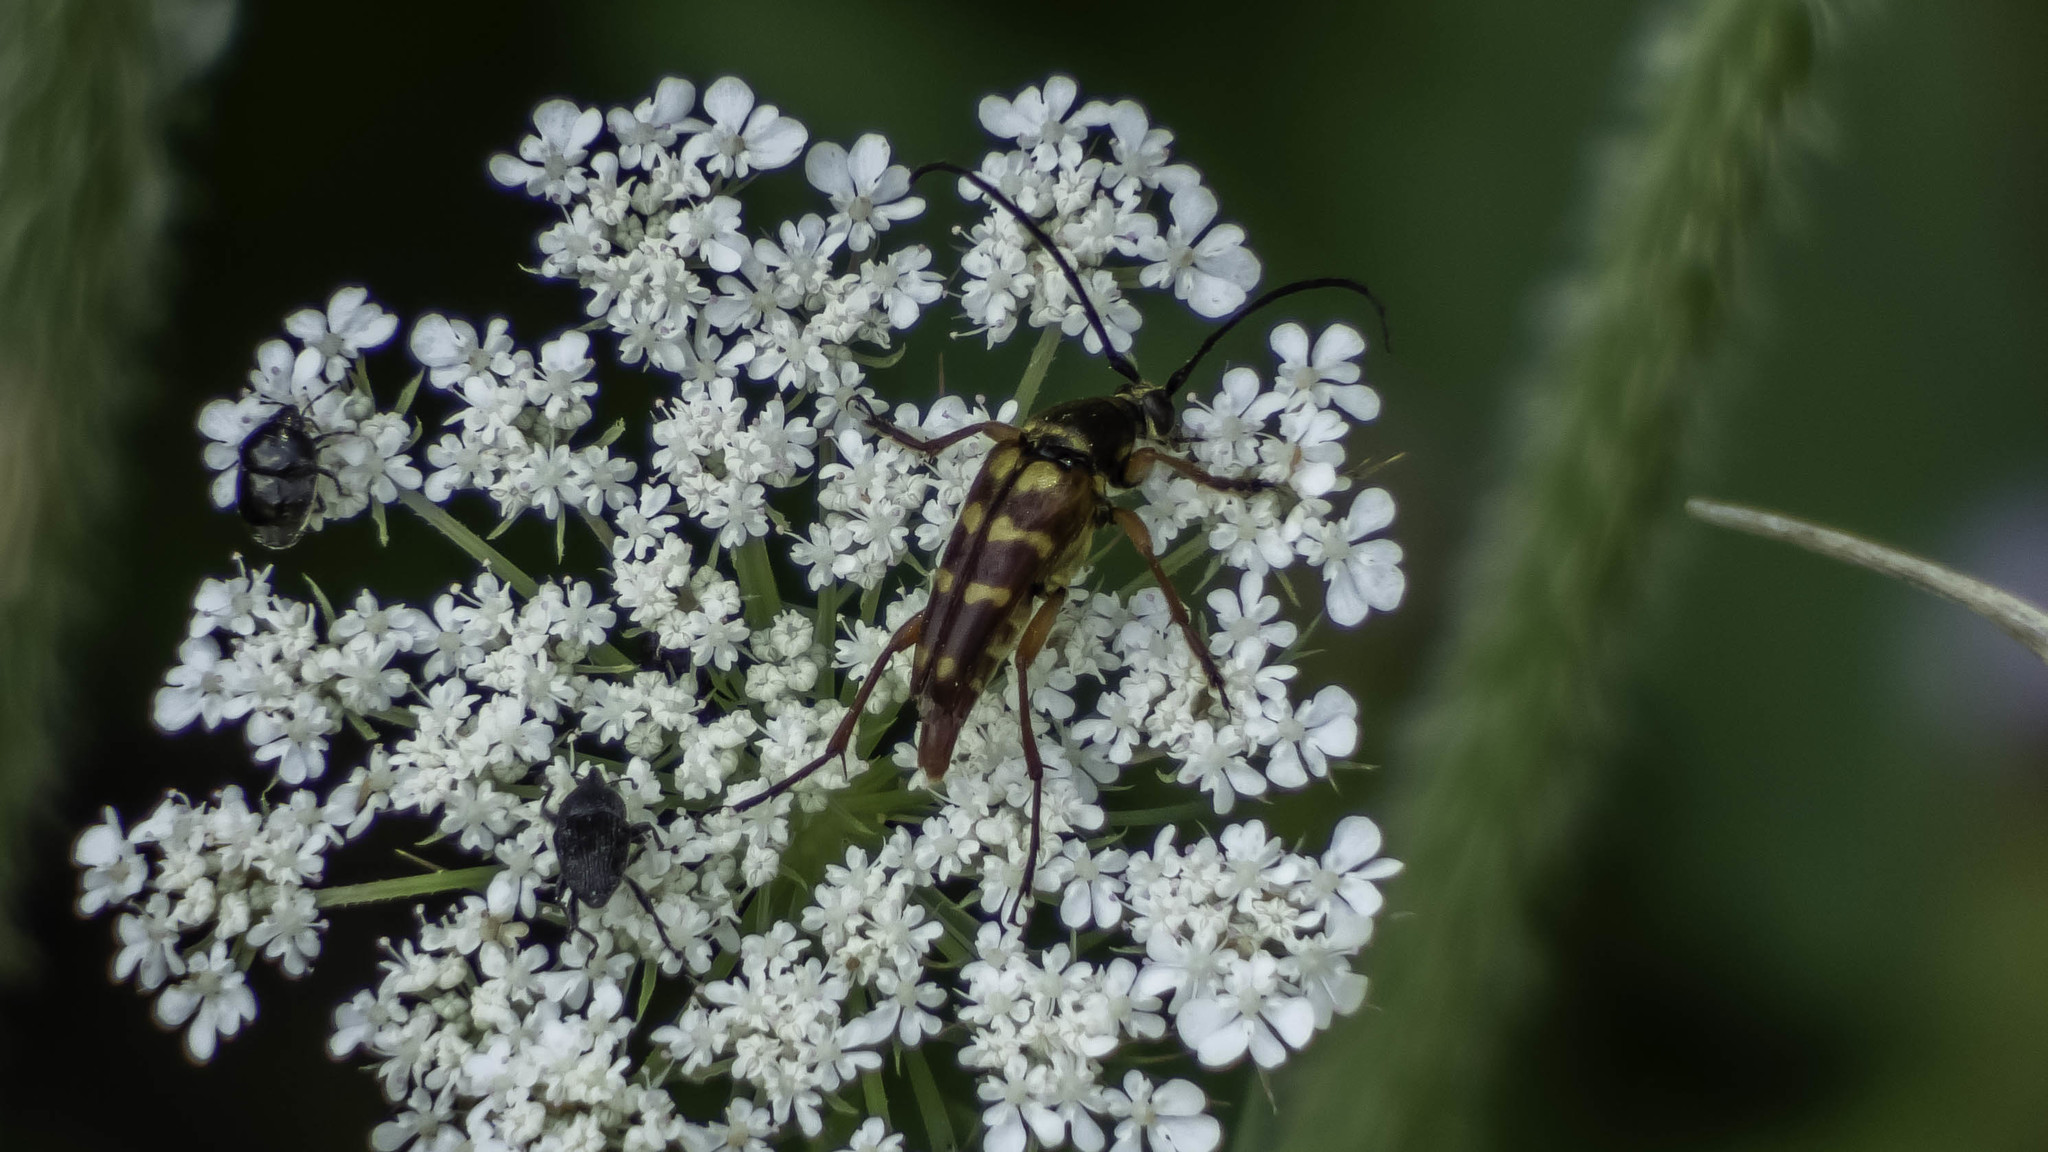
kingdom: Animalia
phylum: Arthropoda
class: Insecta
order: Coleoptera
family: Cerambycidae
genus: Typocerus
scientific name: Typocerus velutinus
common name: Banded longhorn beetle
